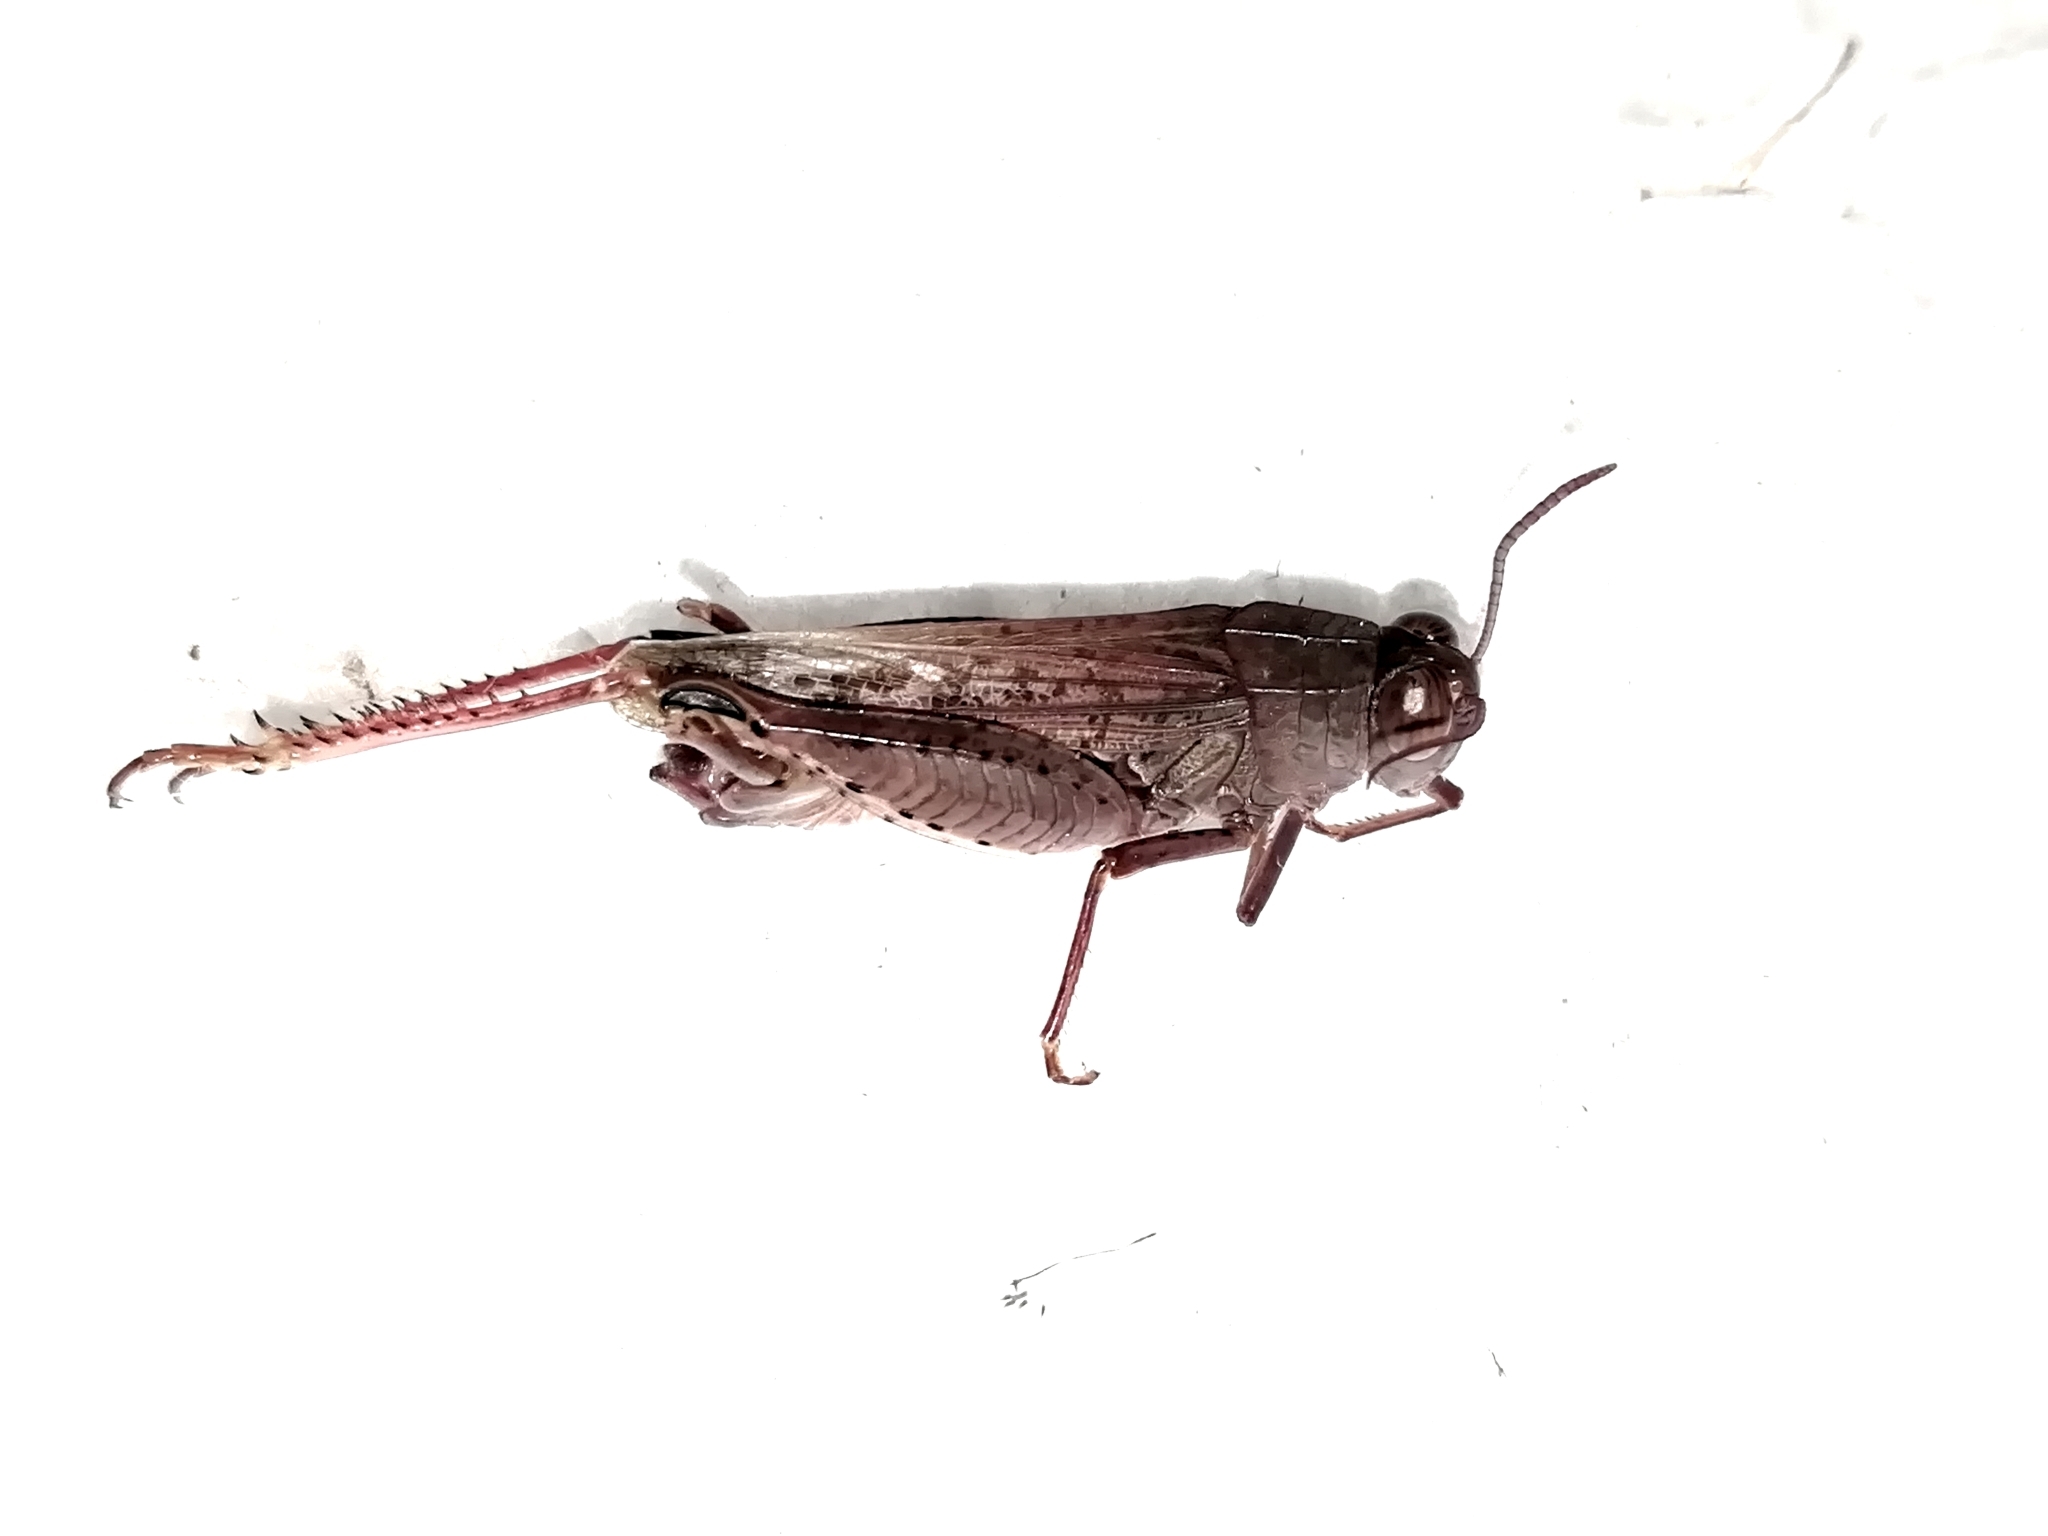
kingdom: Animalia
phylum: Arthropoda
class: Insecta
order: Orthoptera
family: Acrididae
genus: Calliptamus
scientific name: Calliptamus italicus
